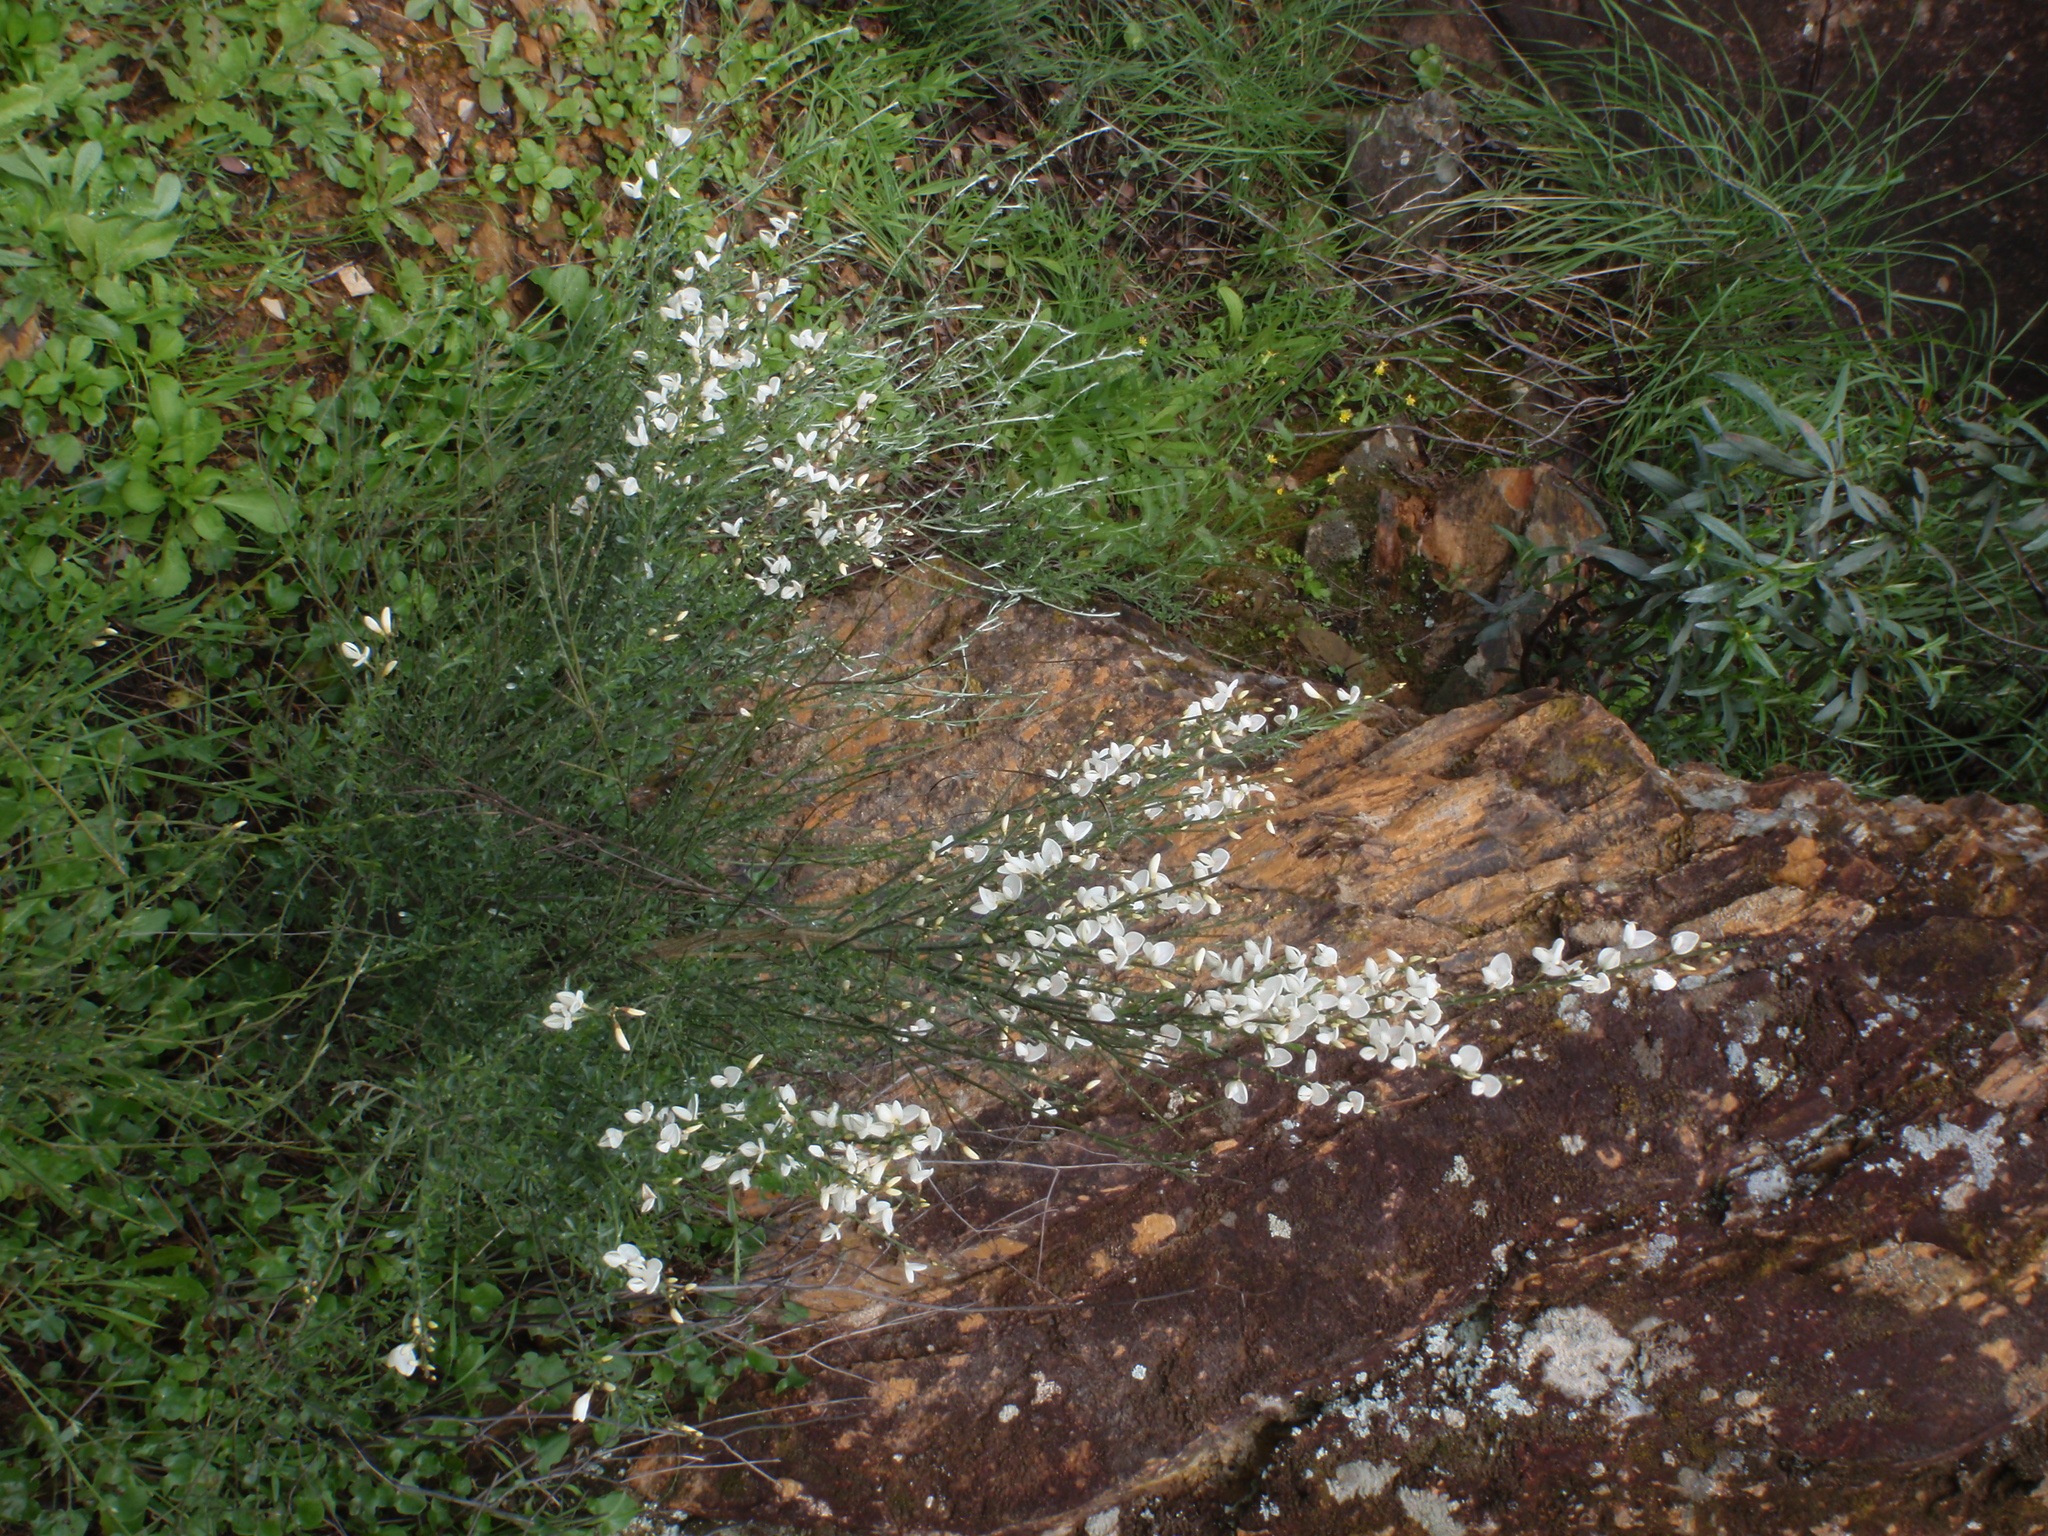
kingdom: Plantae
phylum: Tracheophyta
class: Magnoliopsida
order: Fabales
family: Fabaceae
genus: Cytisus
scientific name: Cytisus multiflorus
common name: White broom
